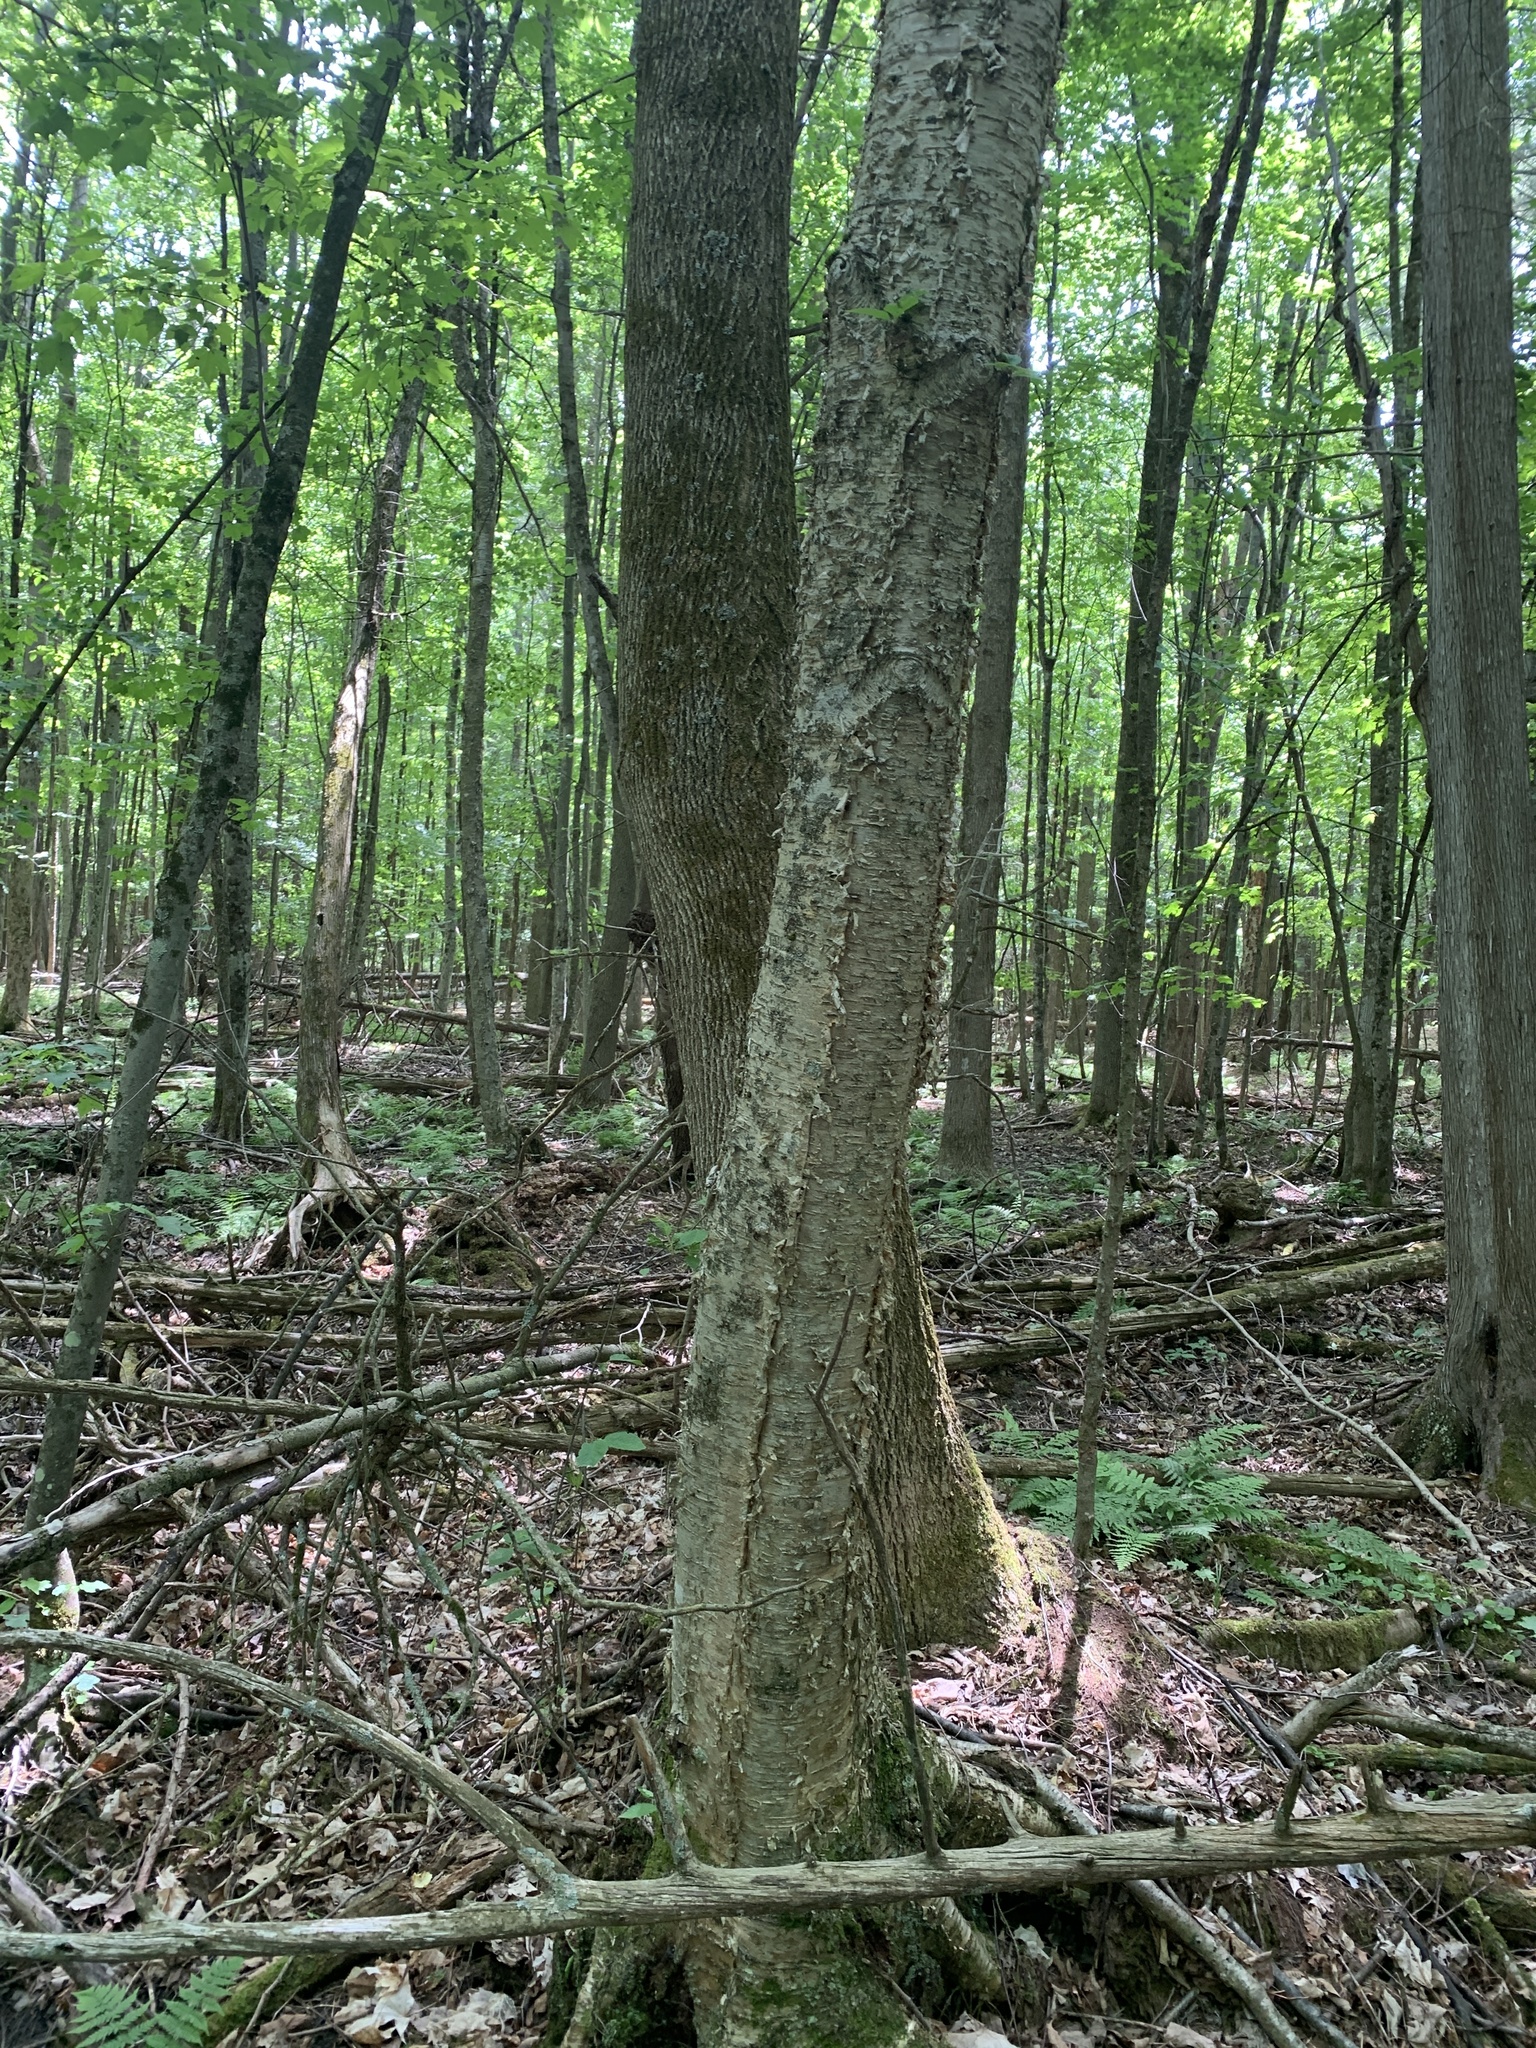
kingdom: Plantae
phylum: Tracheophyta
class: Magnoliopsida
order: Fagales
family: Betulaceae
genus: Betula
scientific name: Betula alleghaniensis
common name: Yellow birch
